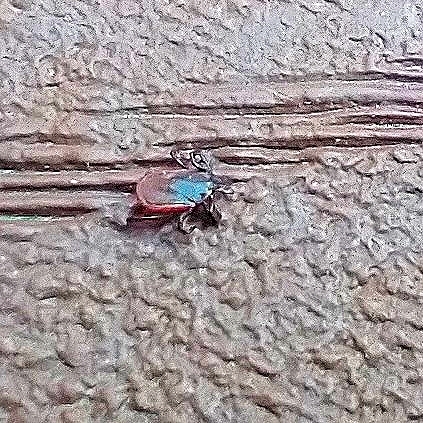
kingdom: Animalia
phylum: Arthropoda
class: Arachnida
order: Ixodida
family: Ixodidae
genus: Ixodes
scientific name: Ixodes scapularis
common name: Black legged tick
